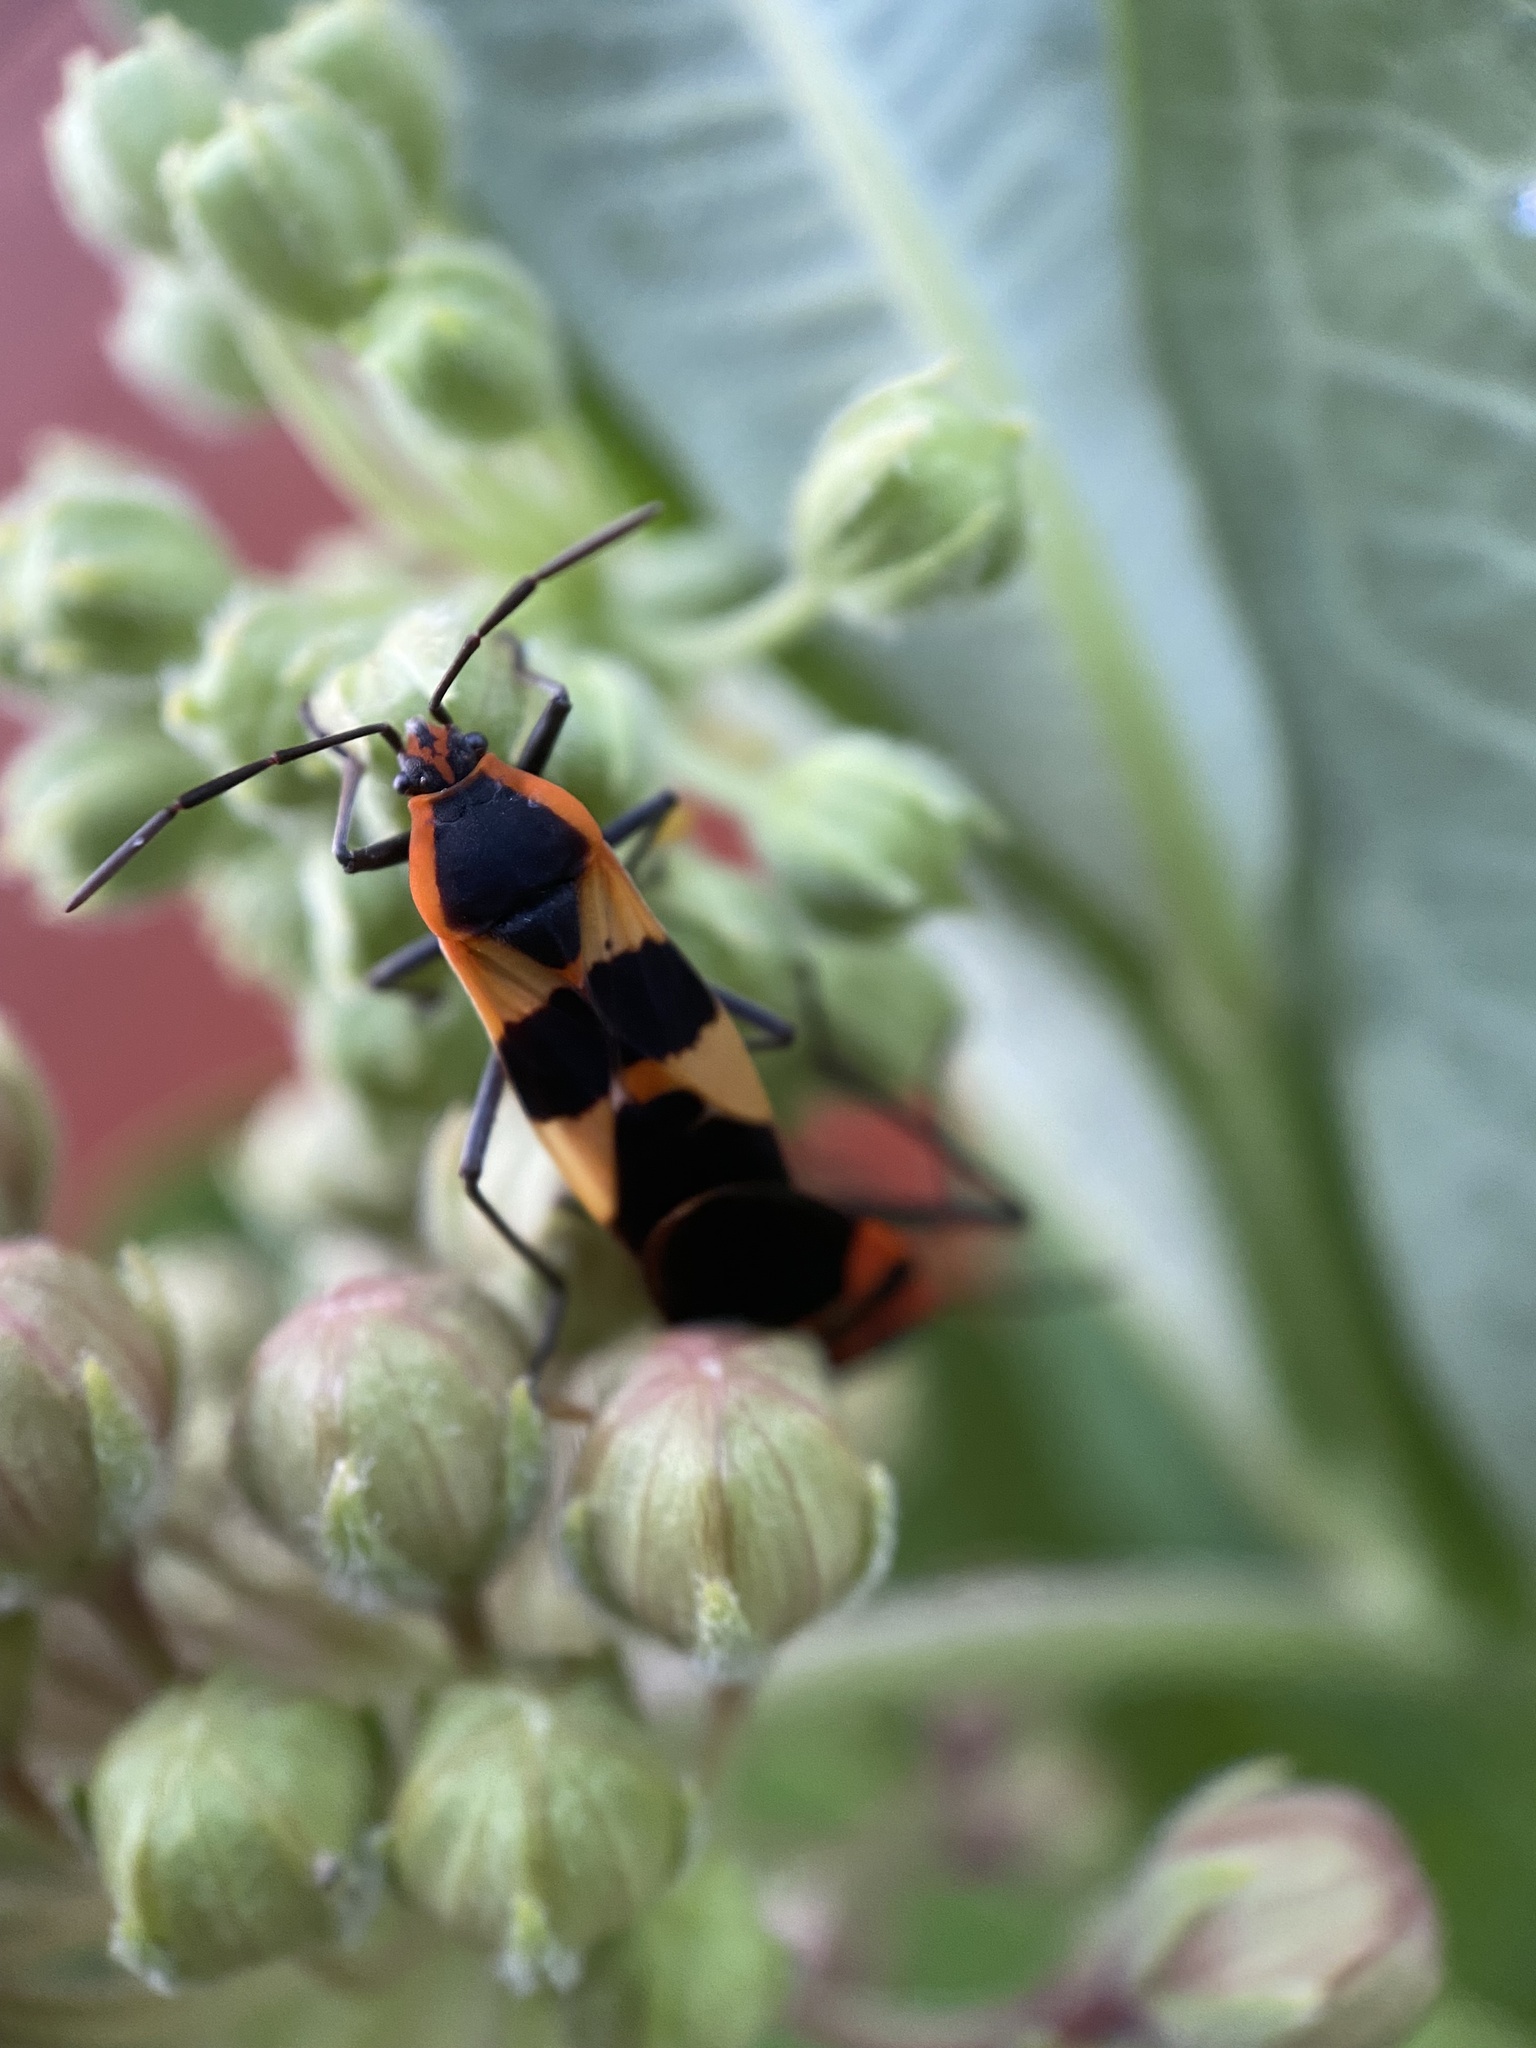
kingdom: Animalia
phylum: Arthropoda
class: Insecta
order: Hemiptera
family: Lygaeidae
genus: Oncopeltus
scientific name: Oncopeltus fasciatus
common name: Large milkweed bug
